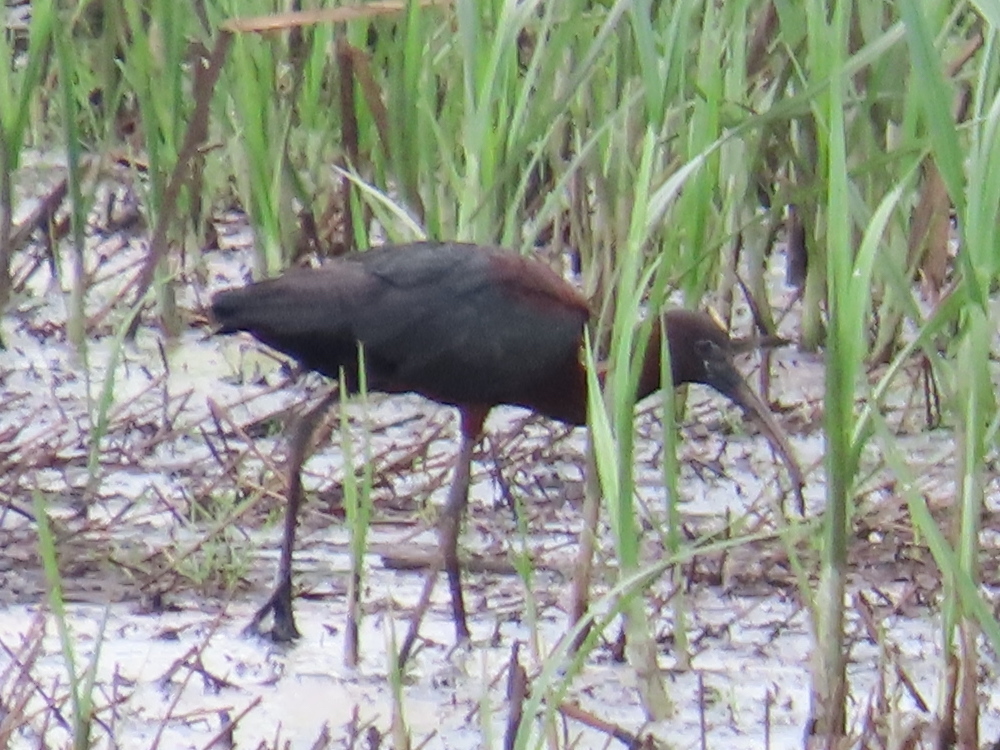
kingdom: Animalia
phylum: Chordata
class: Aves
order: Pelecaniformes
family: Threskiornithidae
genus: Plegadis
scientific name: Plegadis falcinellus
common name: Glossy ibis
